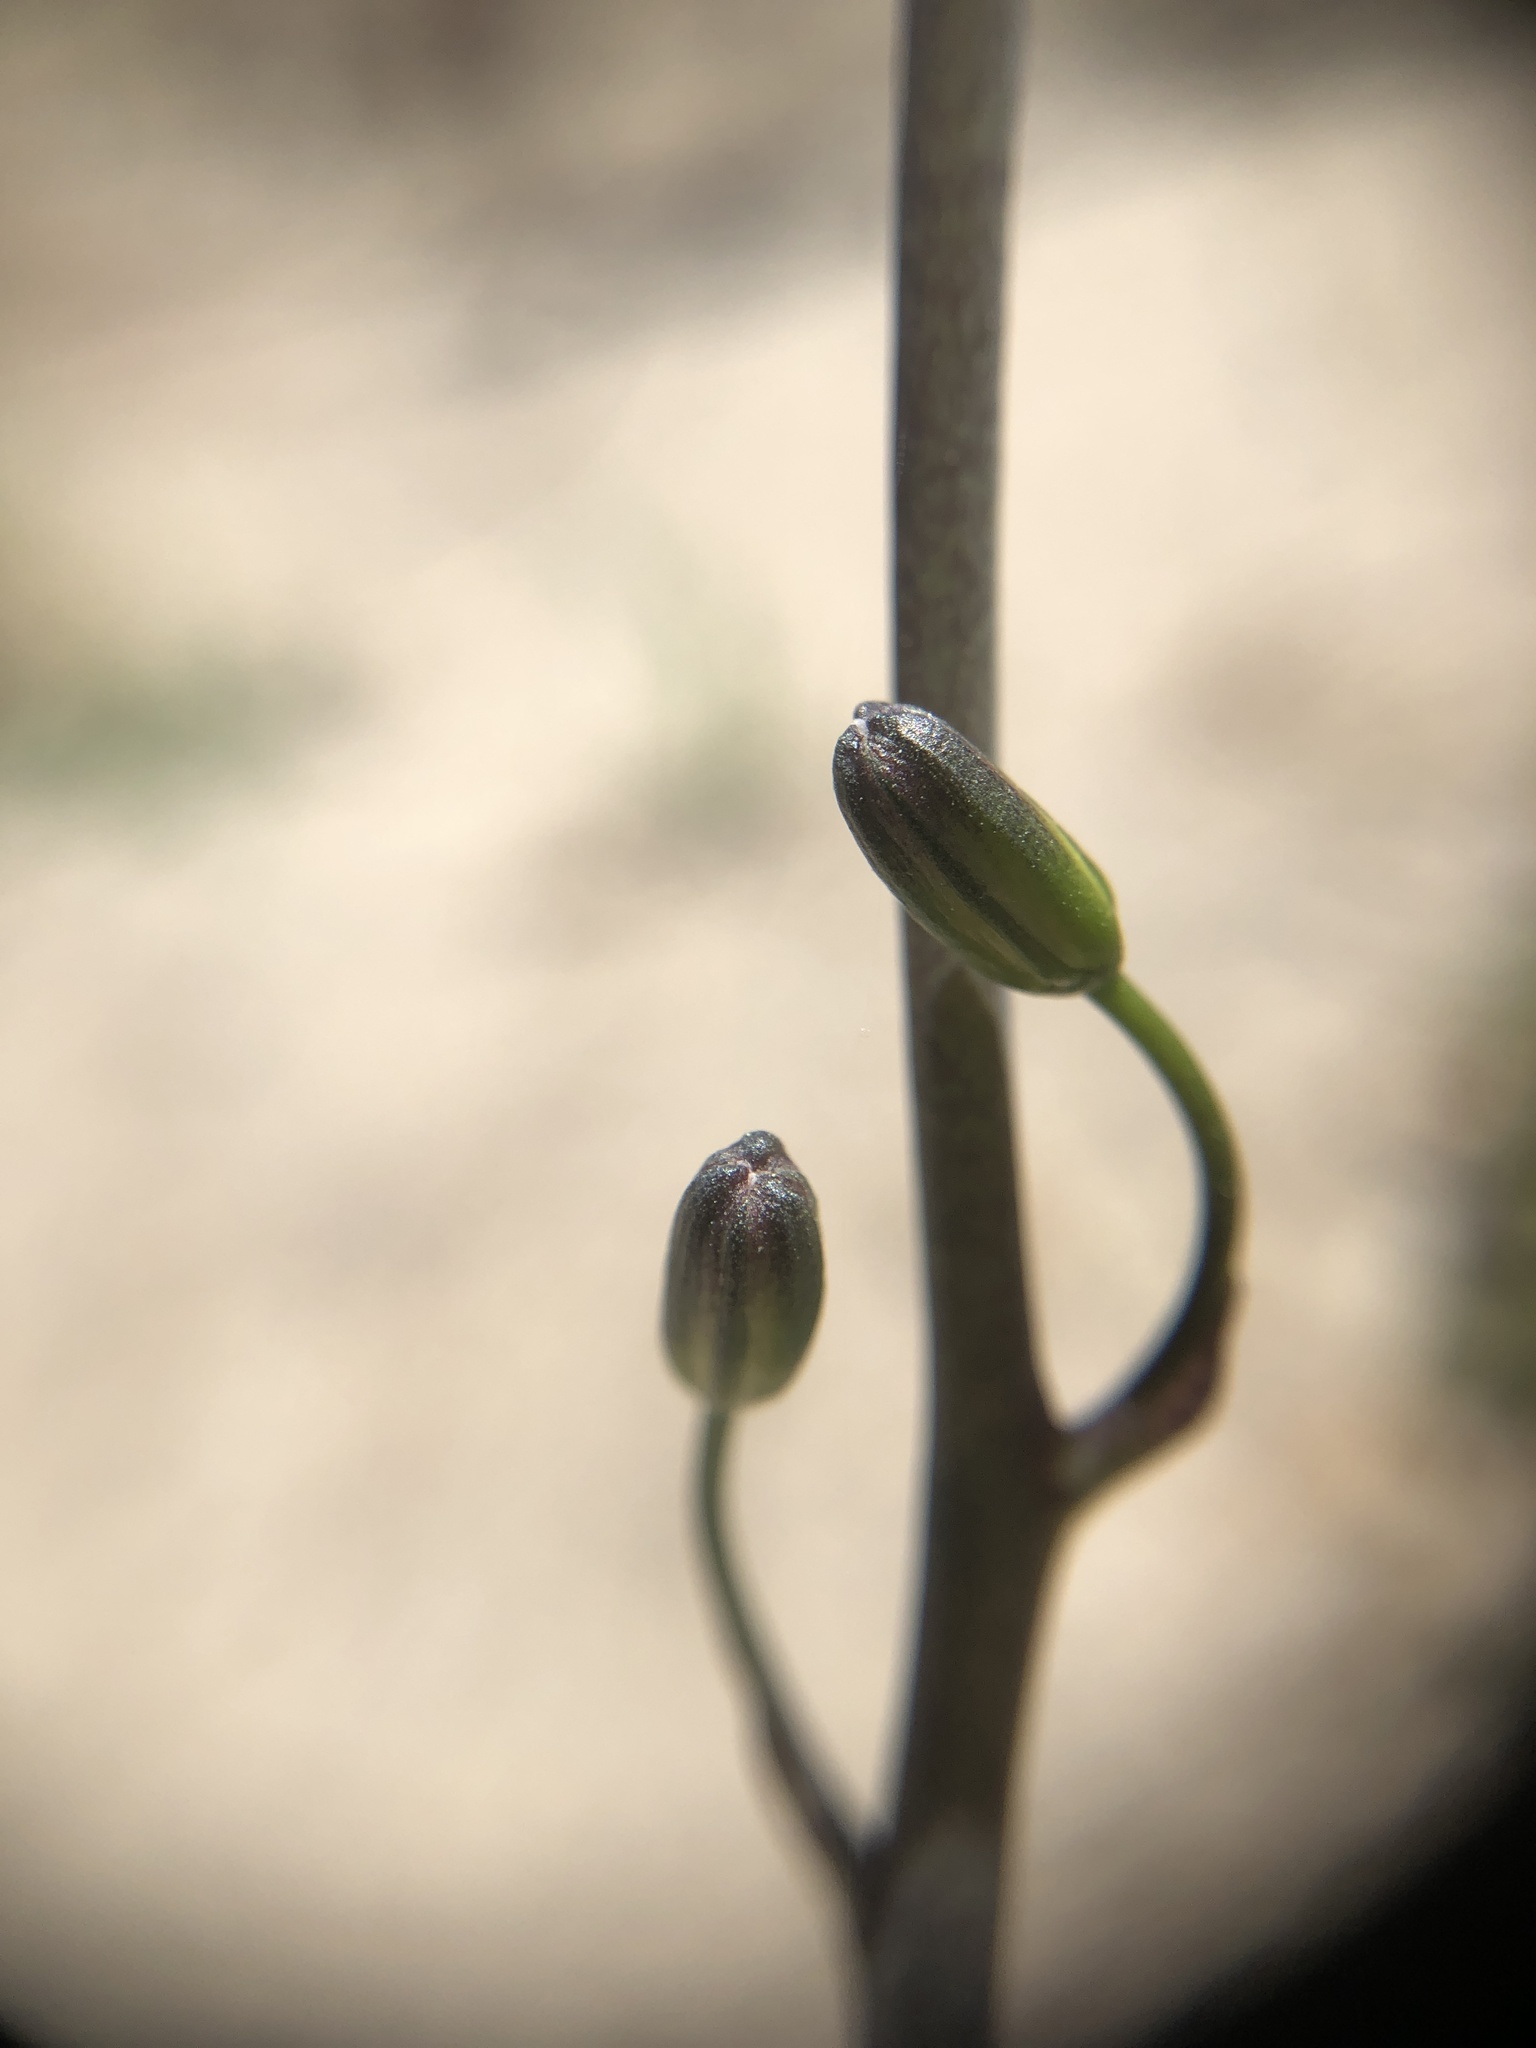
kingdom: Plantae
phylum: Tracheophyta
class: Liliopsida
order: Asparagales
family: Asparagaceae
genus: Chlorogalum
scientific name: Chlorogalum pomeridianum
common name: Amole
